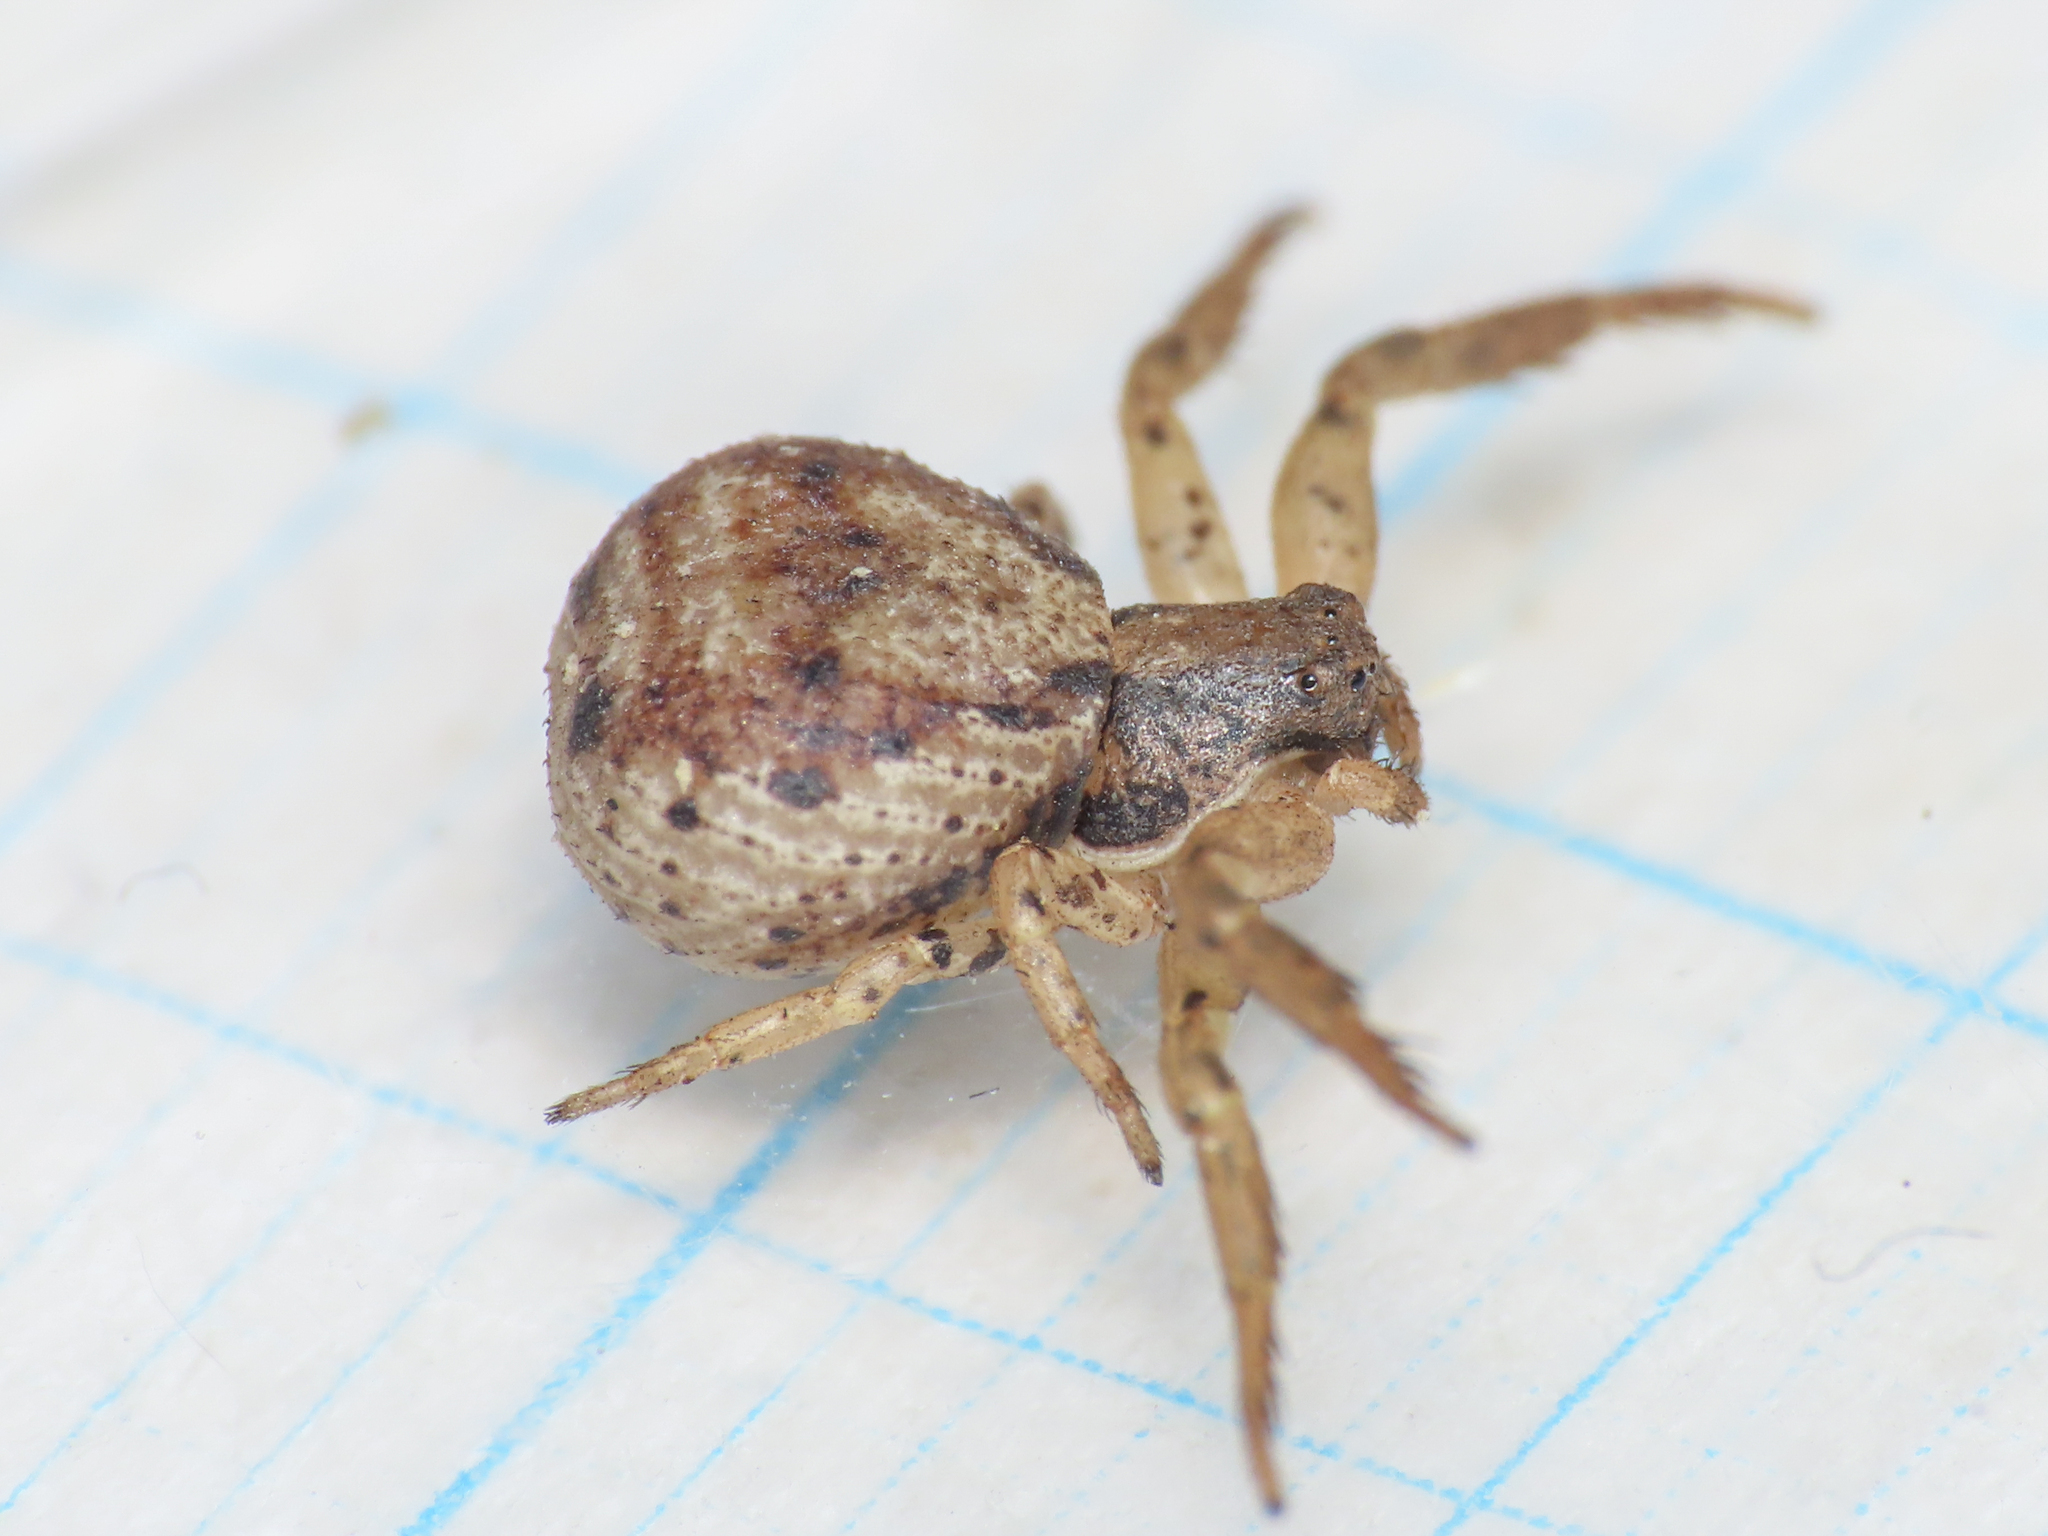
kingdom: Animalia
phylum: Arthropoda
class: Arachnida
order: Araneae
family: Thomisidae
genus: Ozyptila
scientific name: Ozyptila atomaria
